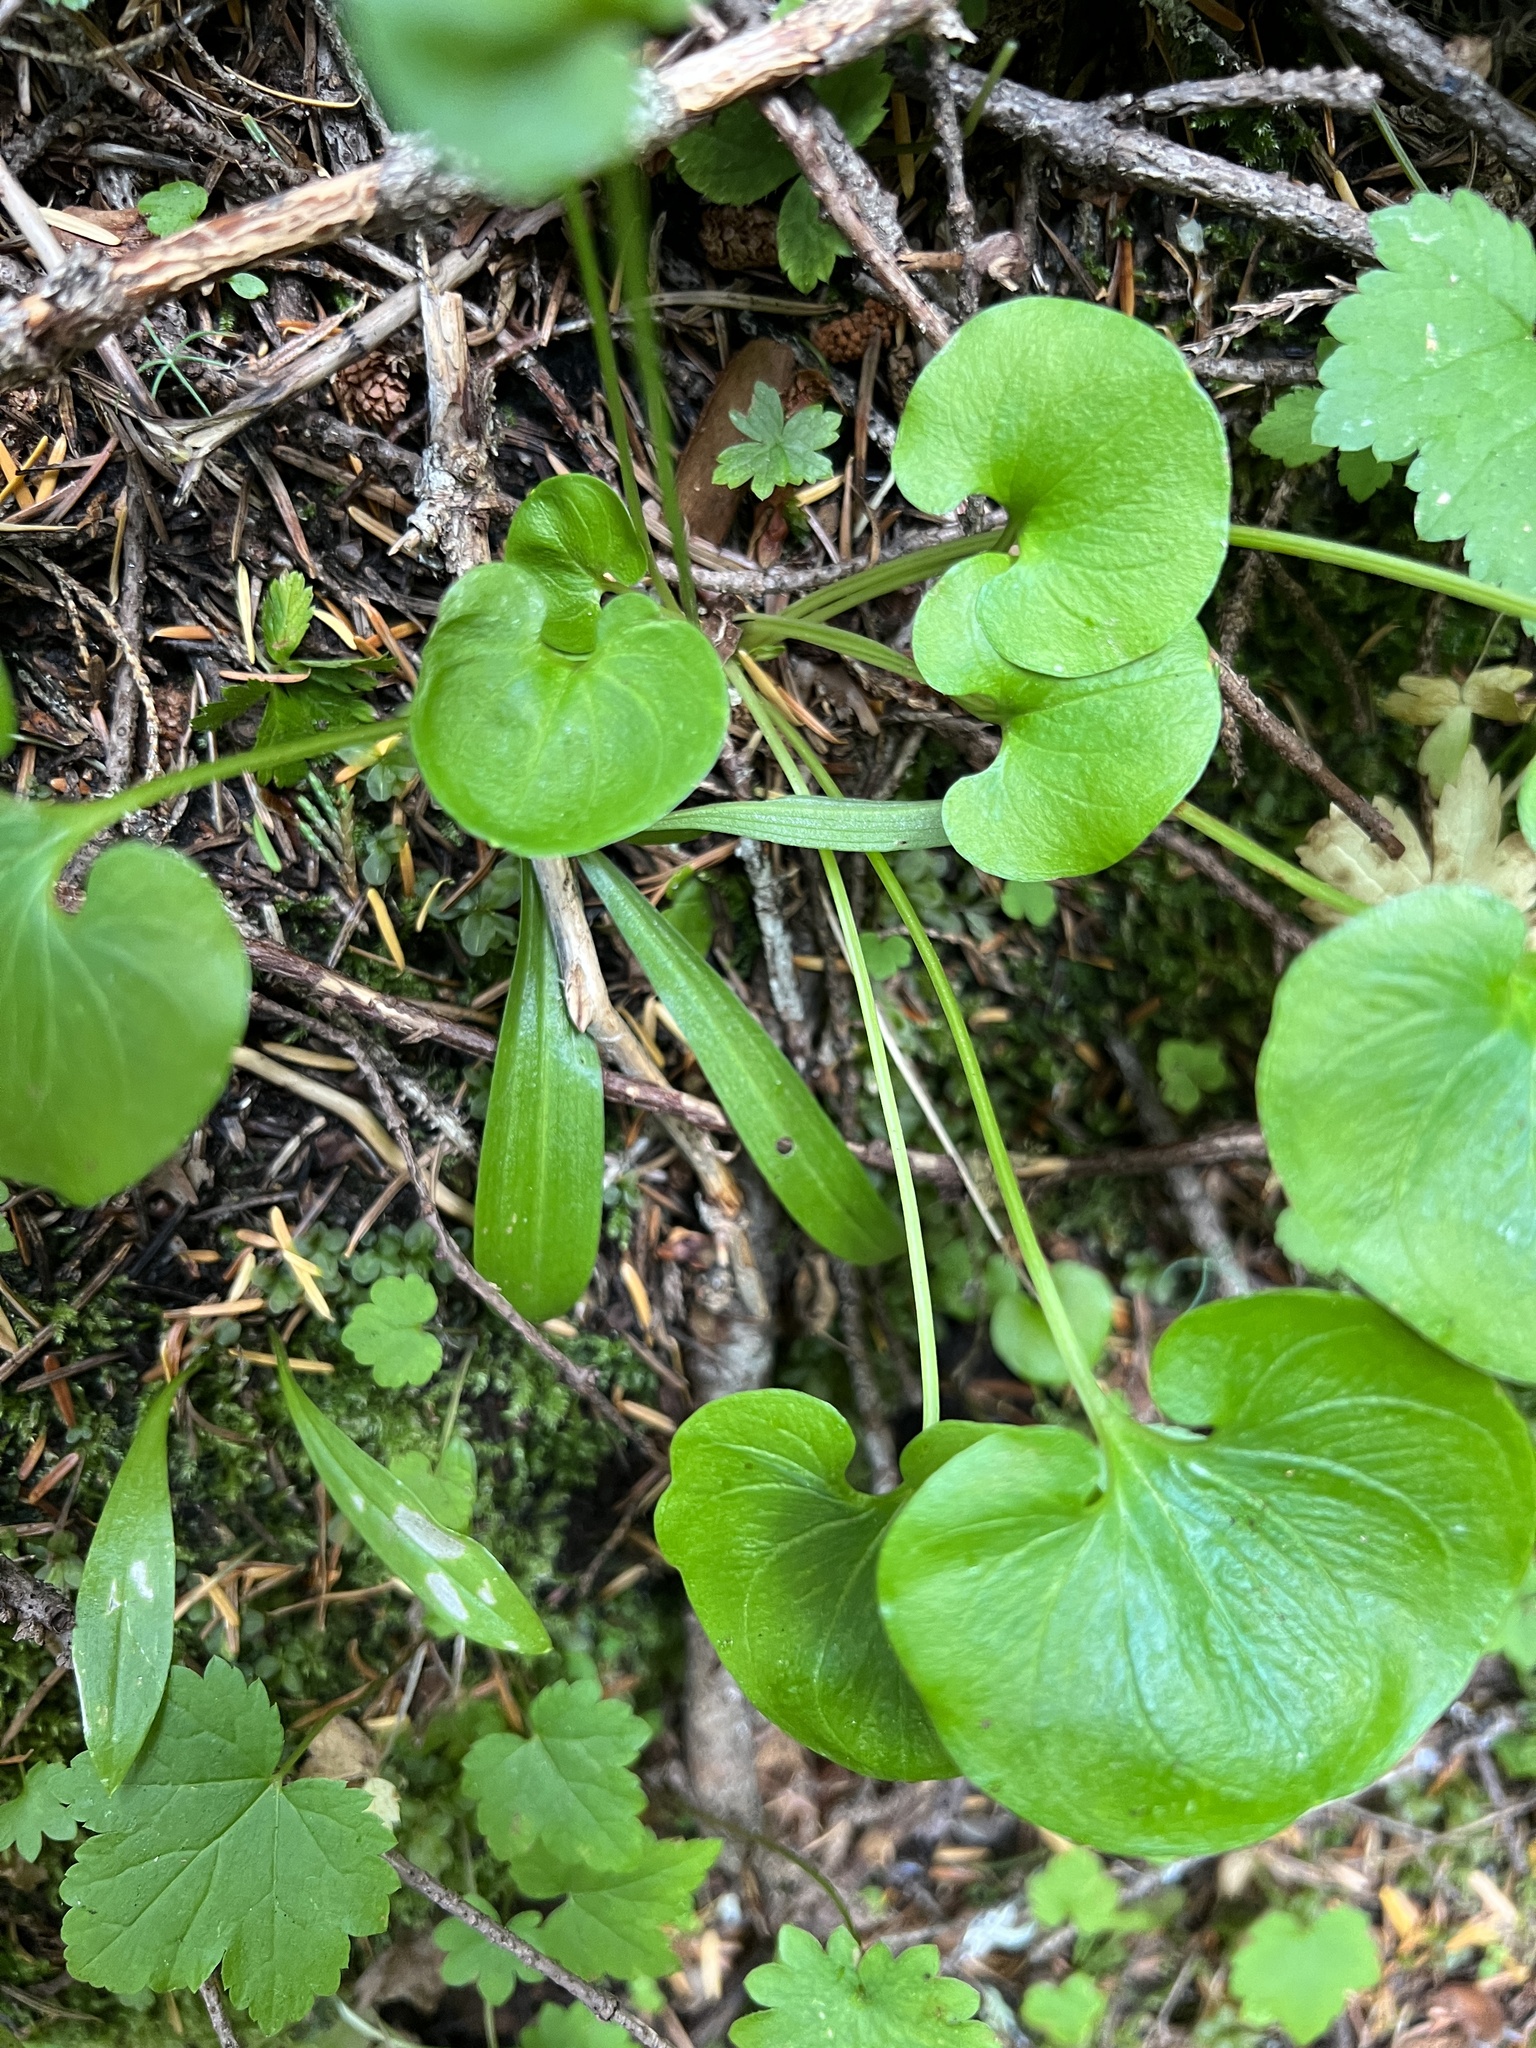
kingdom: Plantae
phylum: Tracheophyta
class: Magnoliopsida
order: Celastrales
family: Parnassiaceae
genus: Parnassia
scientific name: Parnassia fimbriata
